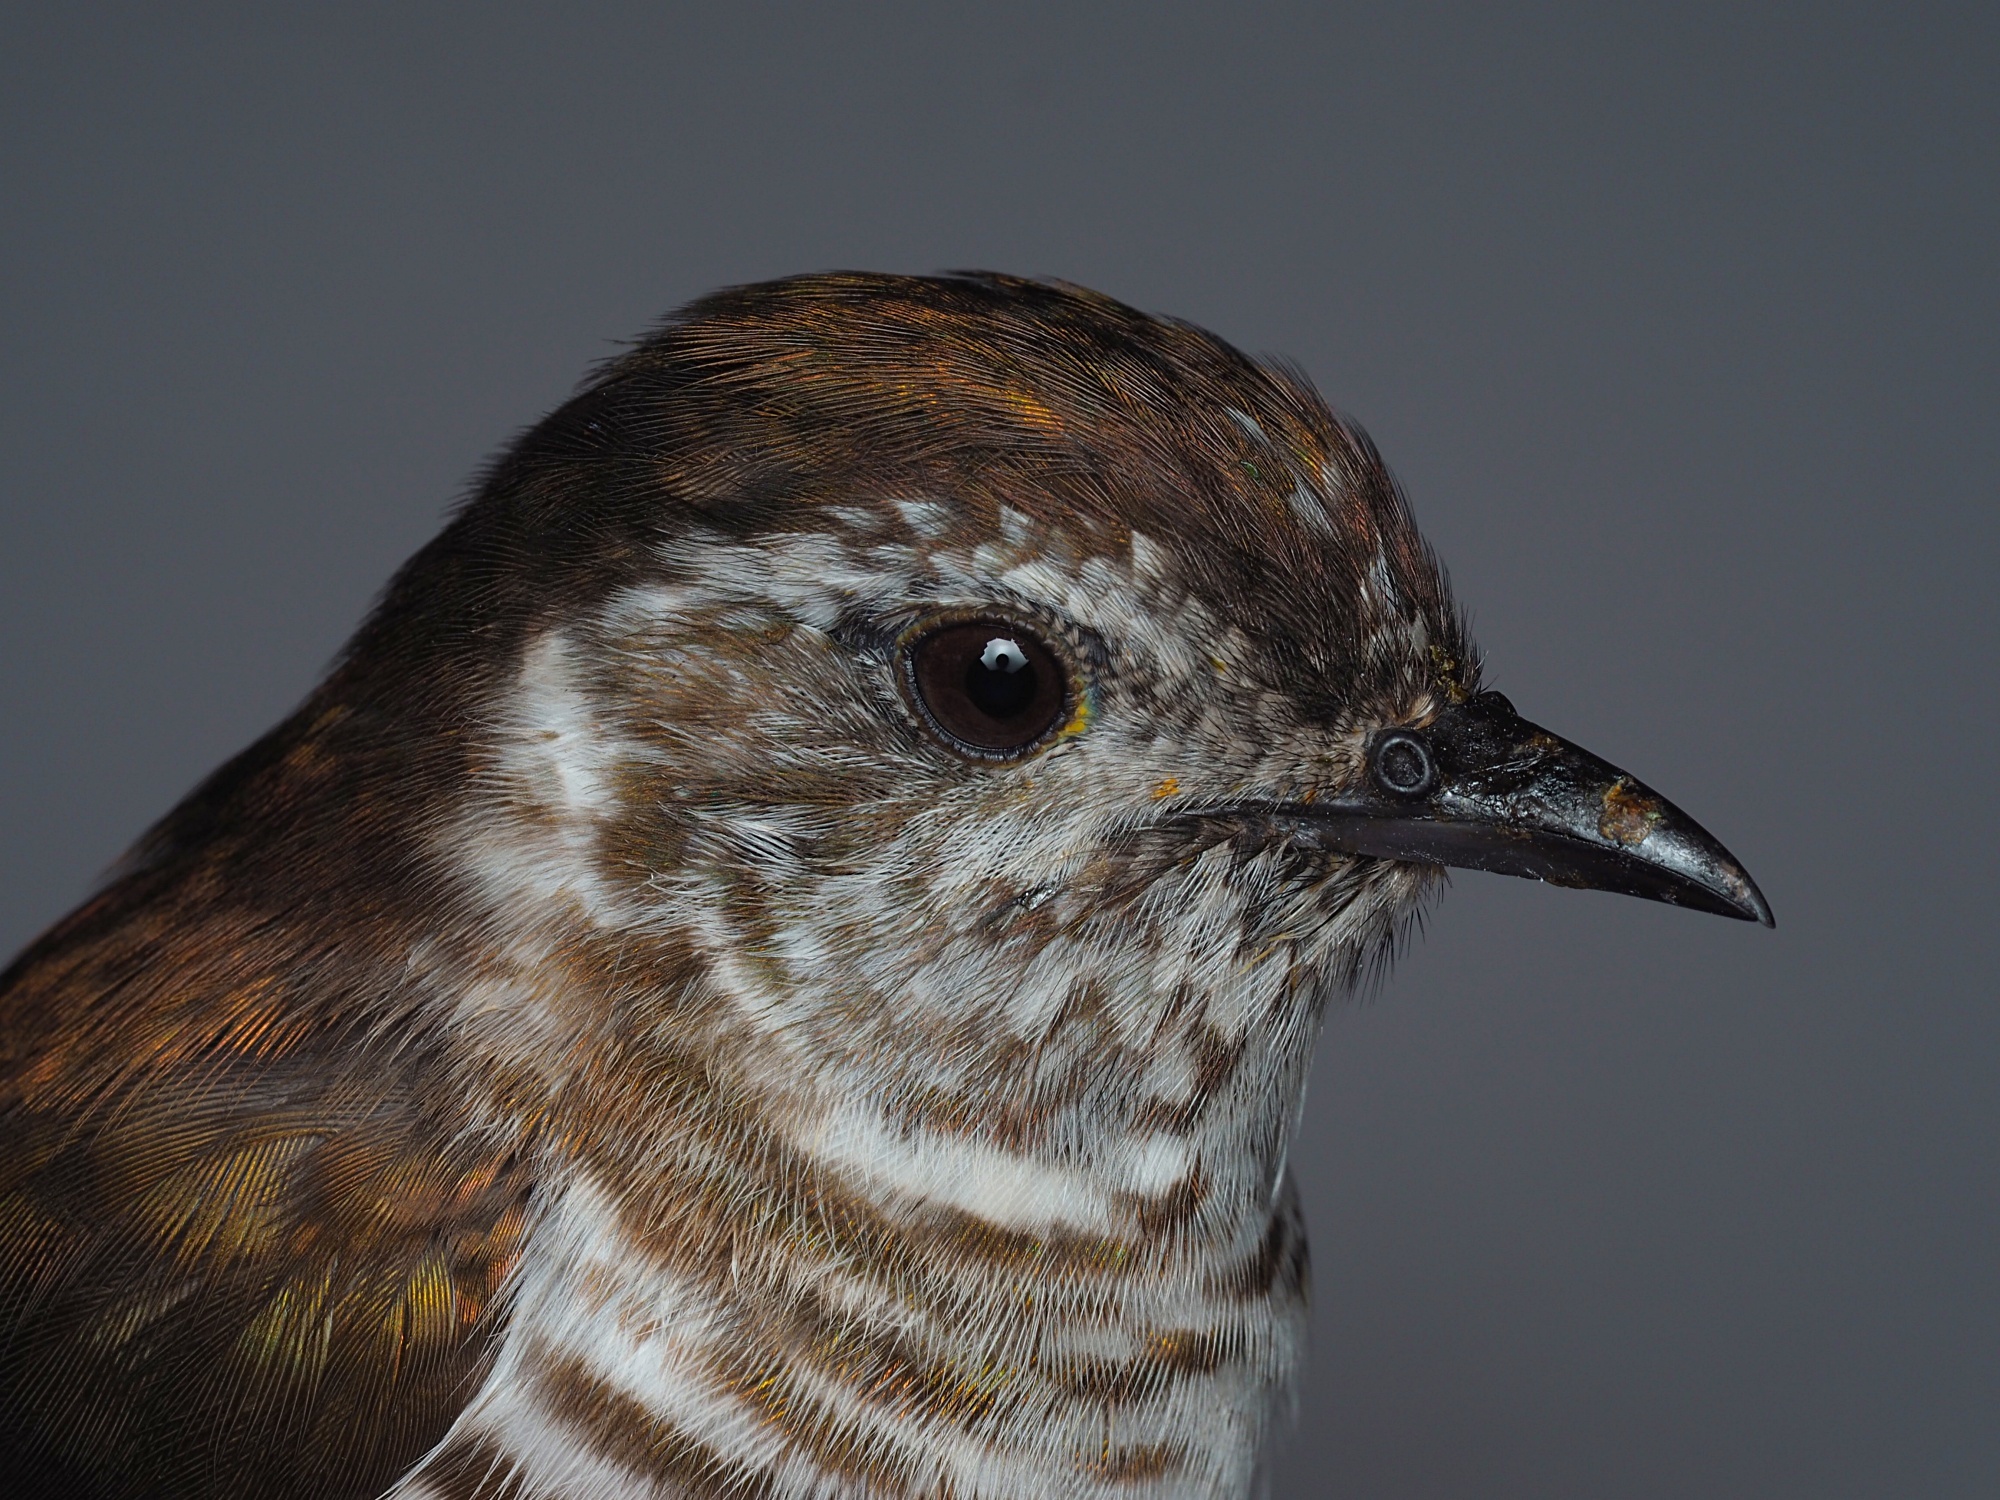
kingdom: Animalia
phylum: Chordata
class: Aves
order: Cuculiformes
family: Cuculidae
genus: Chrysococcyx
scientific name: Chrysococcyx lucidus
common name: Shining bronze cuckoo
